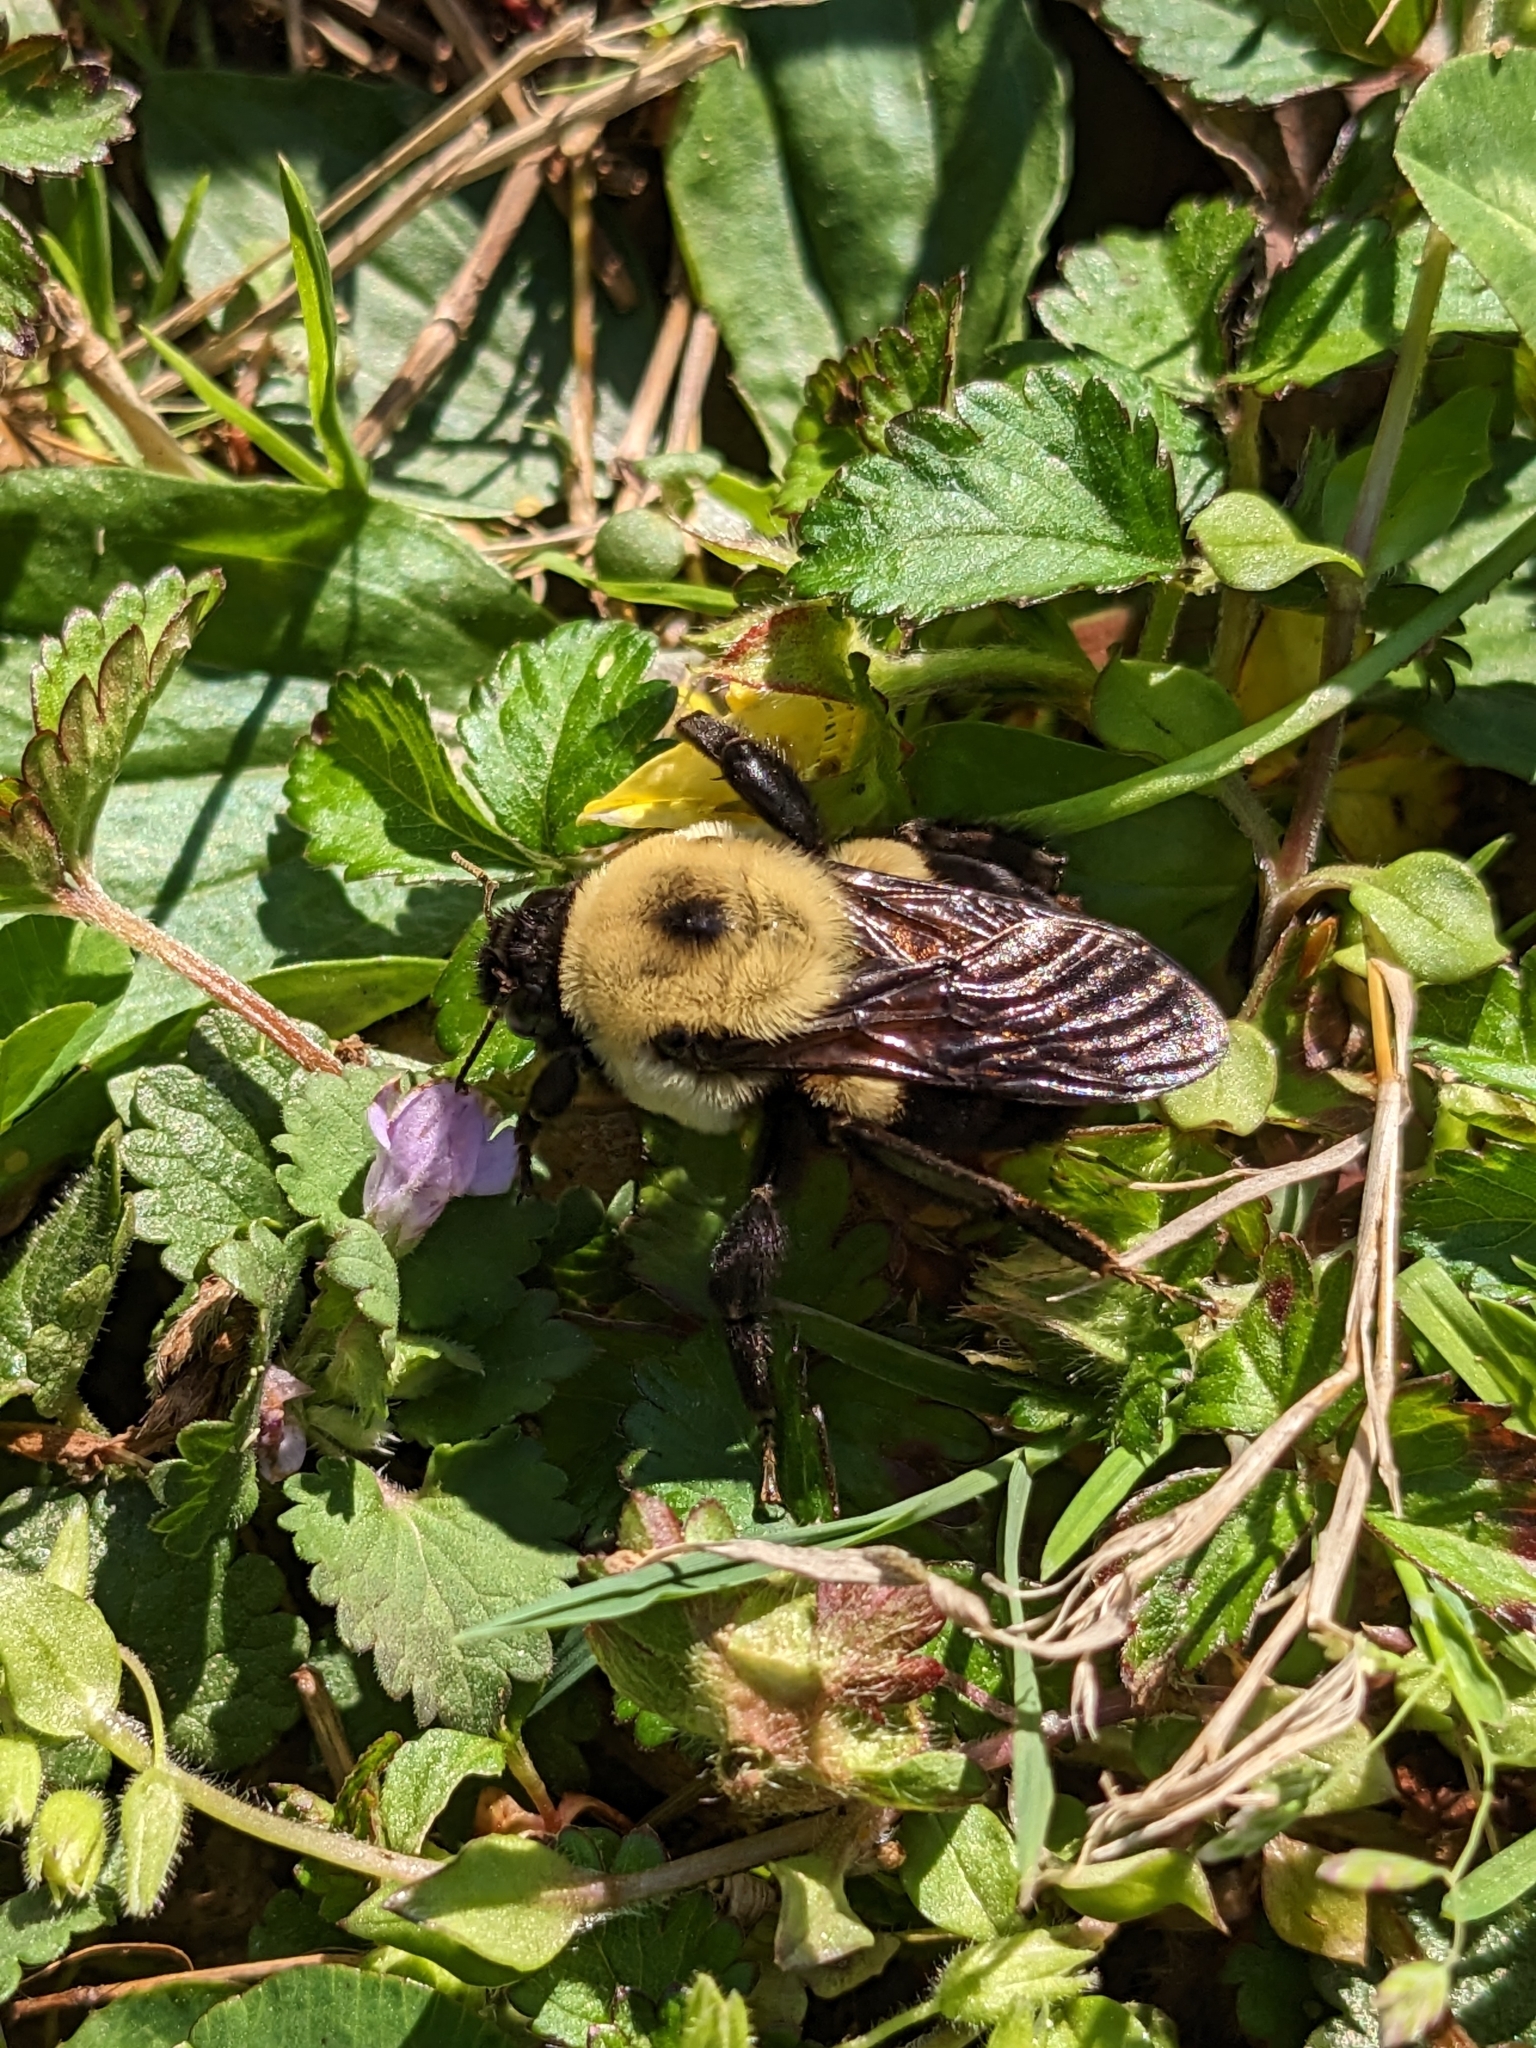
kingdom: Animalia
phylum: Arthropoda
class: Insecta
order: Hymenoptera
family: Apidae
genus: Bombus
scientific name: Bombus griseocollis
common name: Brown-belted bumble bee
